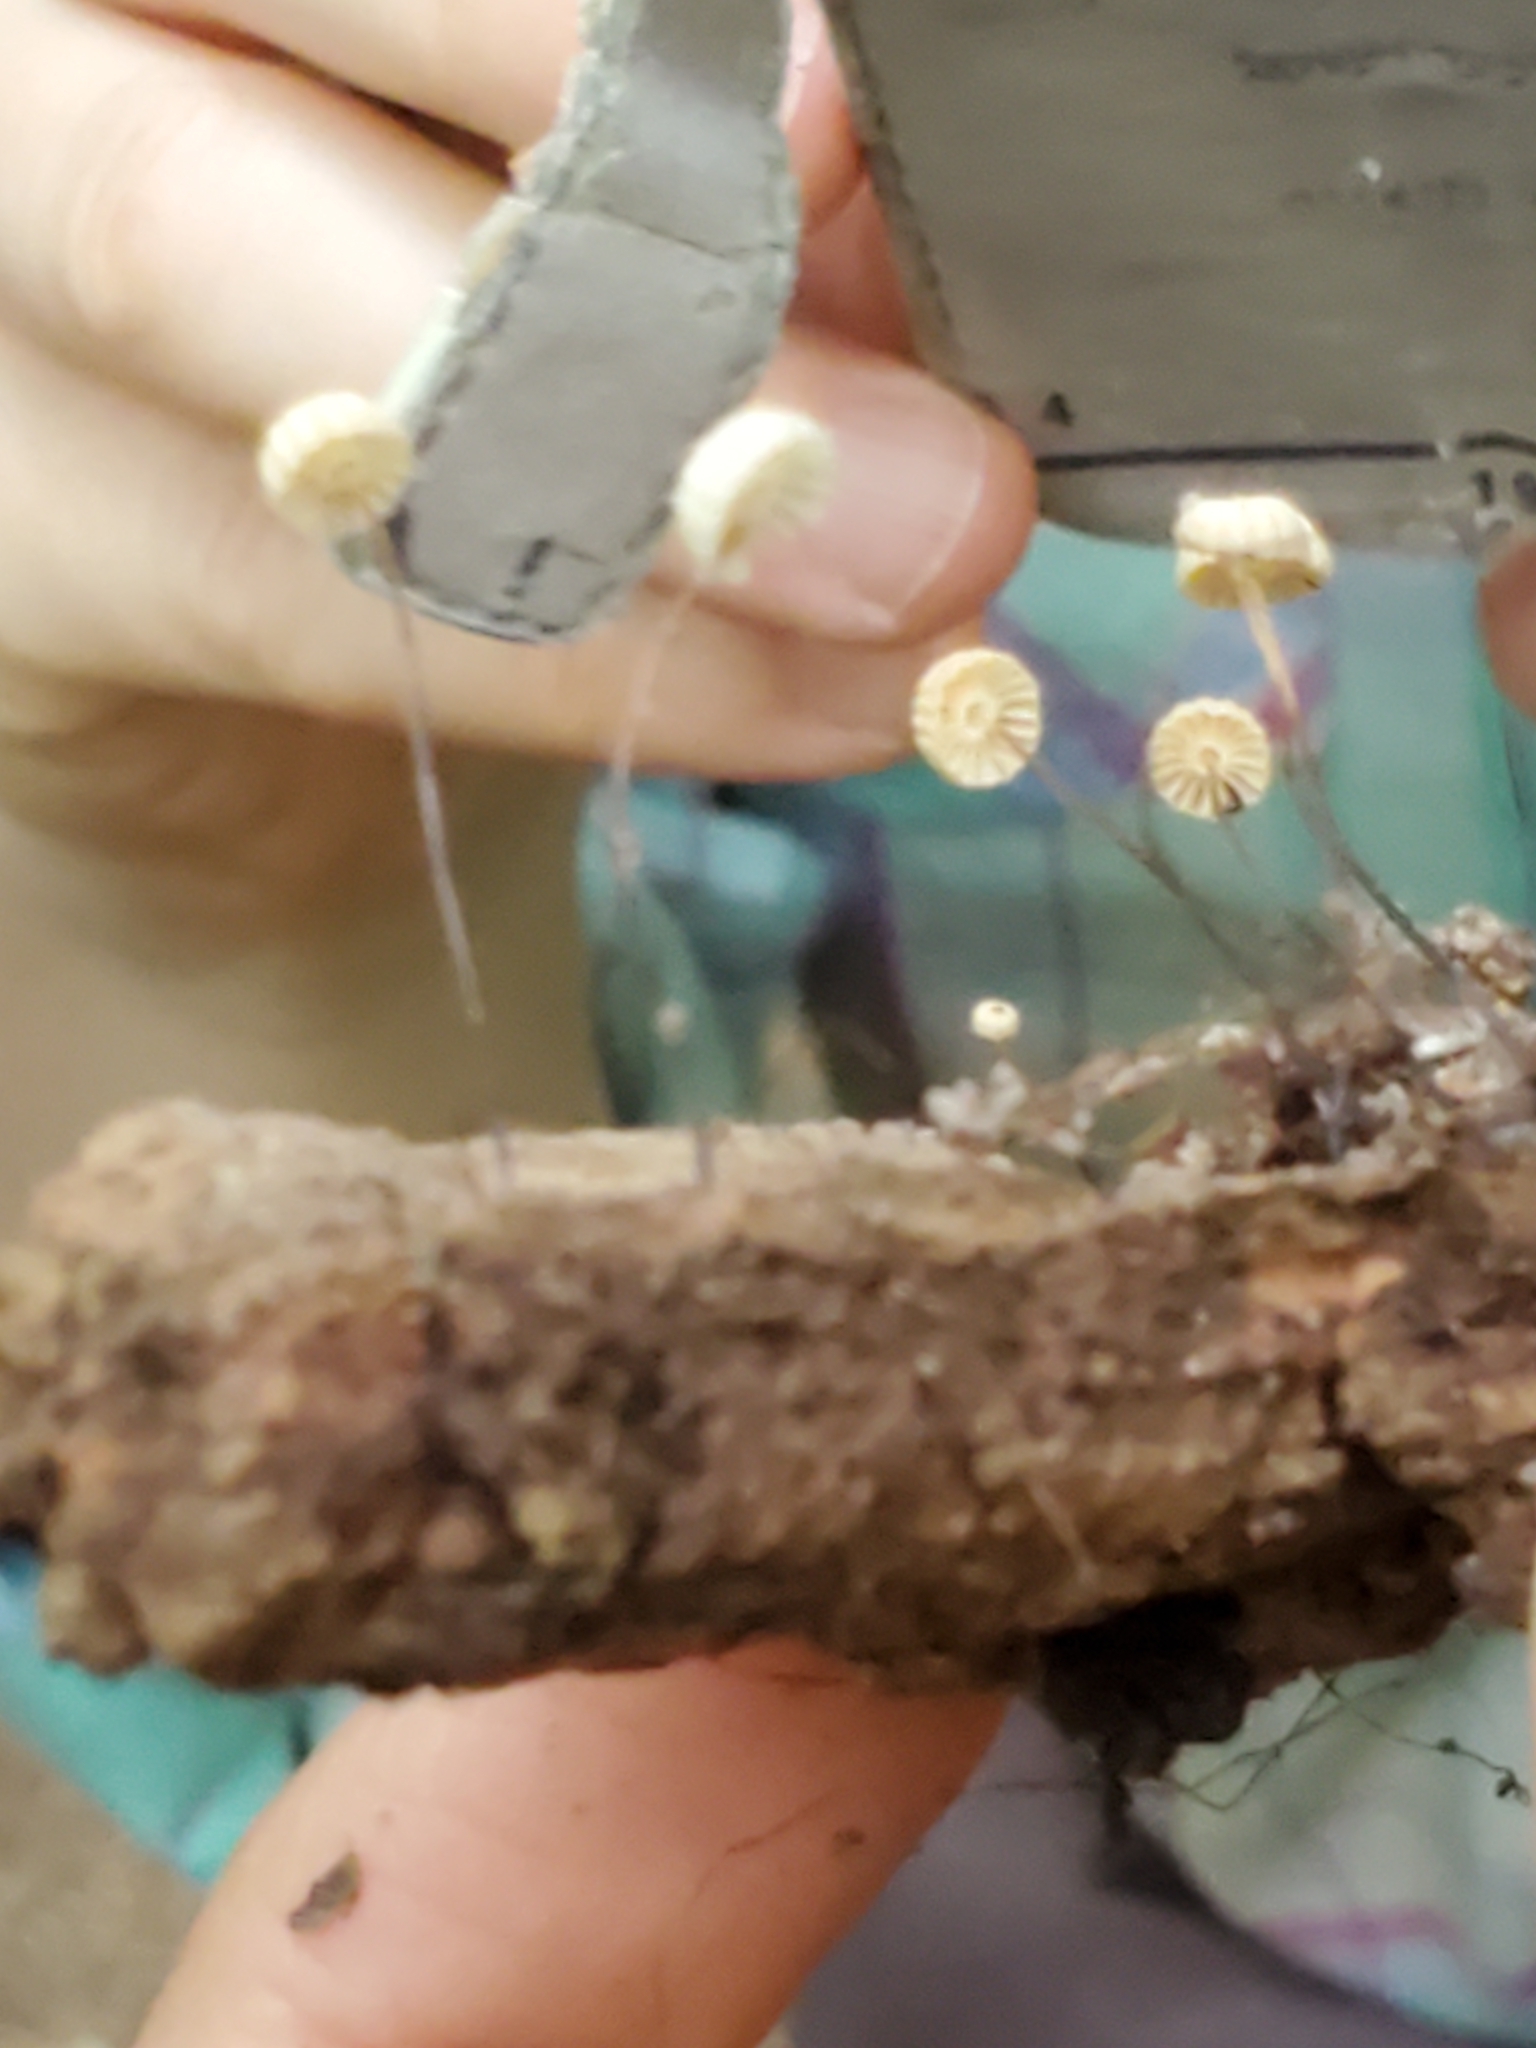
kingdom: Fungi
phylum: Basidiomycota
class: Agaricomycetes
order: Agaricales
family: Marasmiaceae
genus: Marasmius
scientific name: Marasmius capillaris
